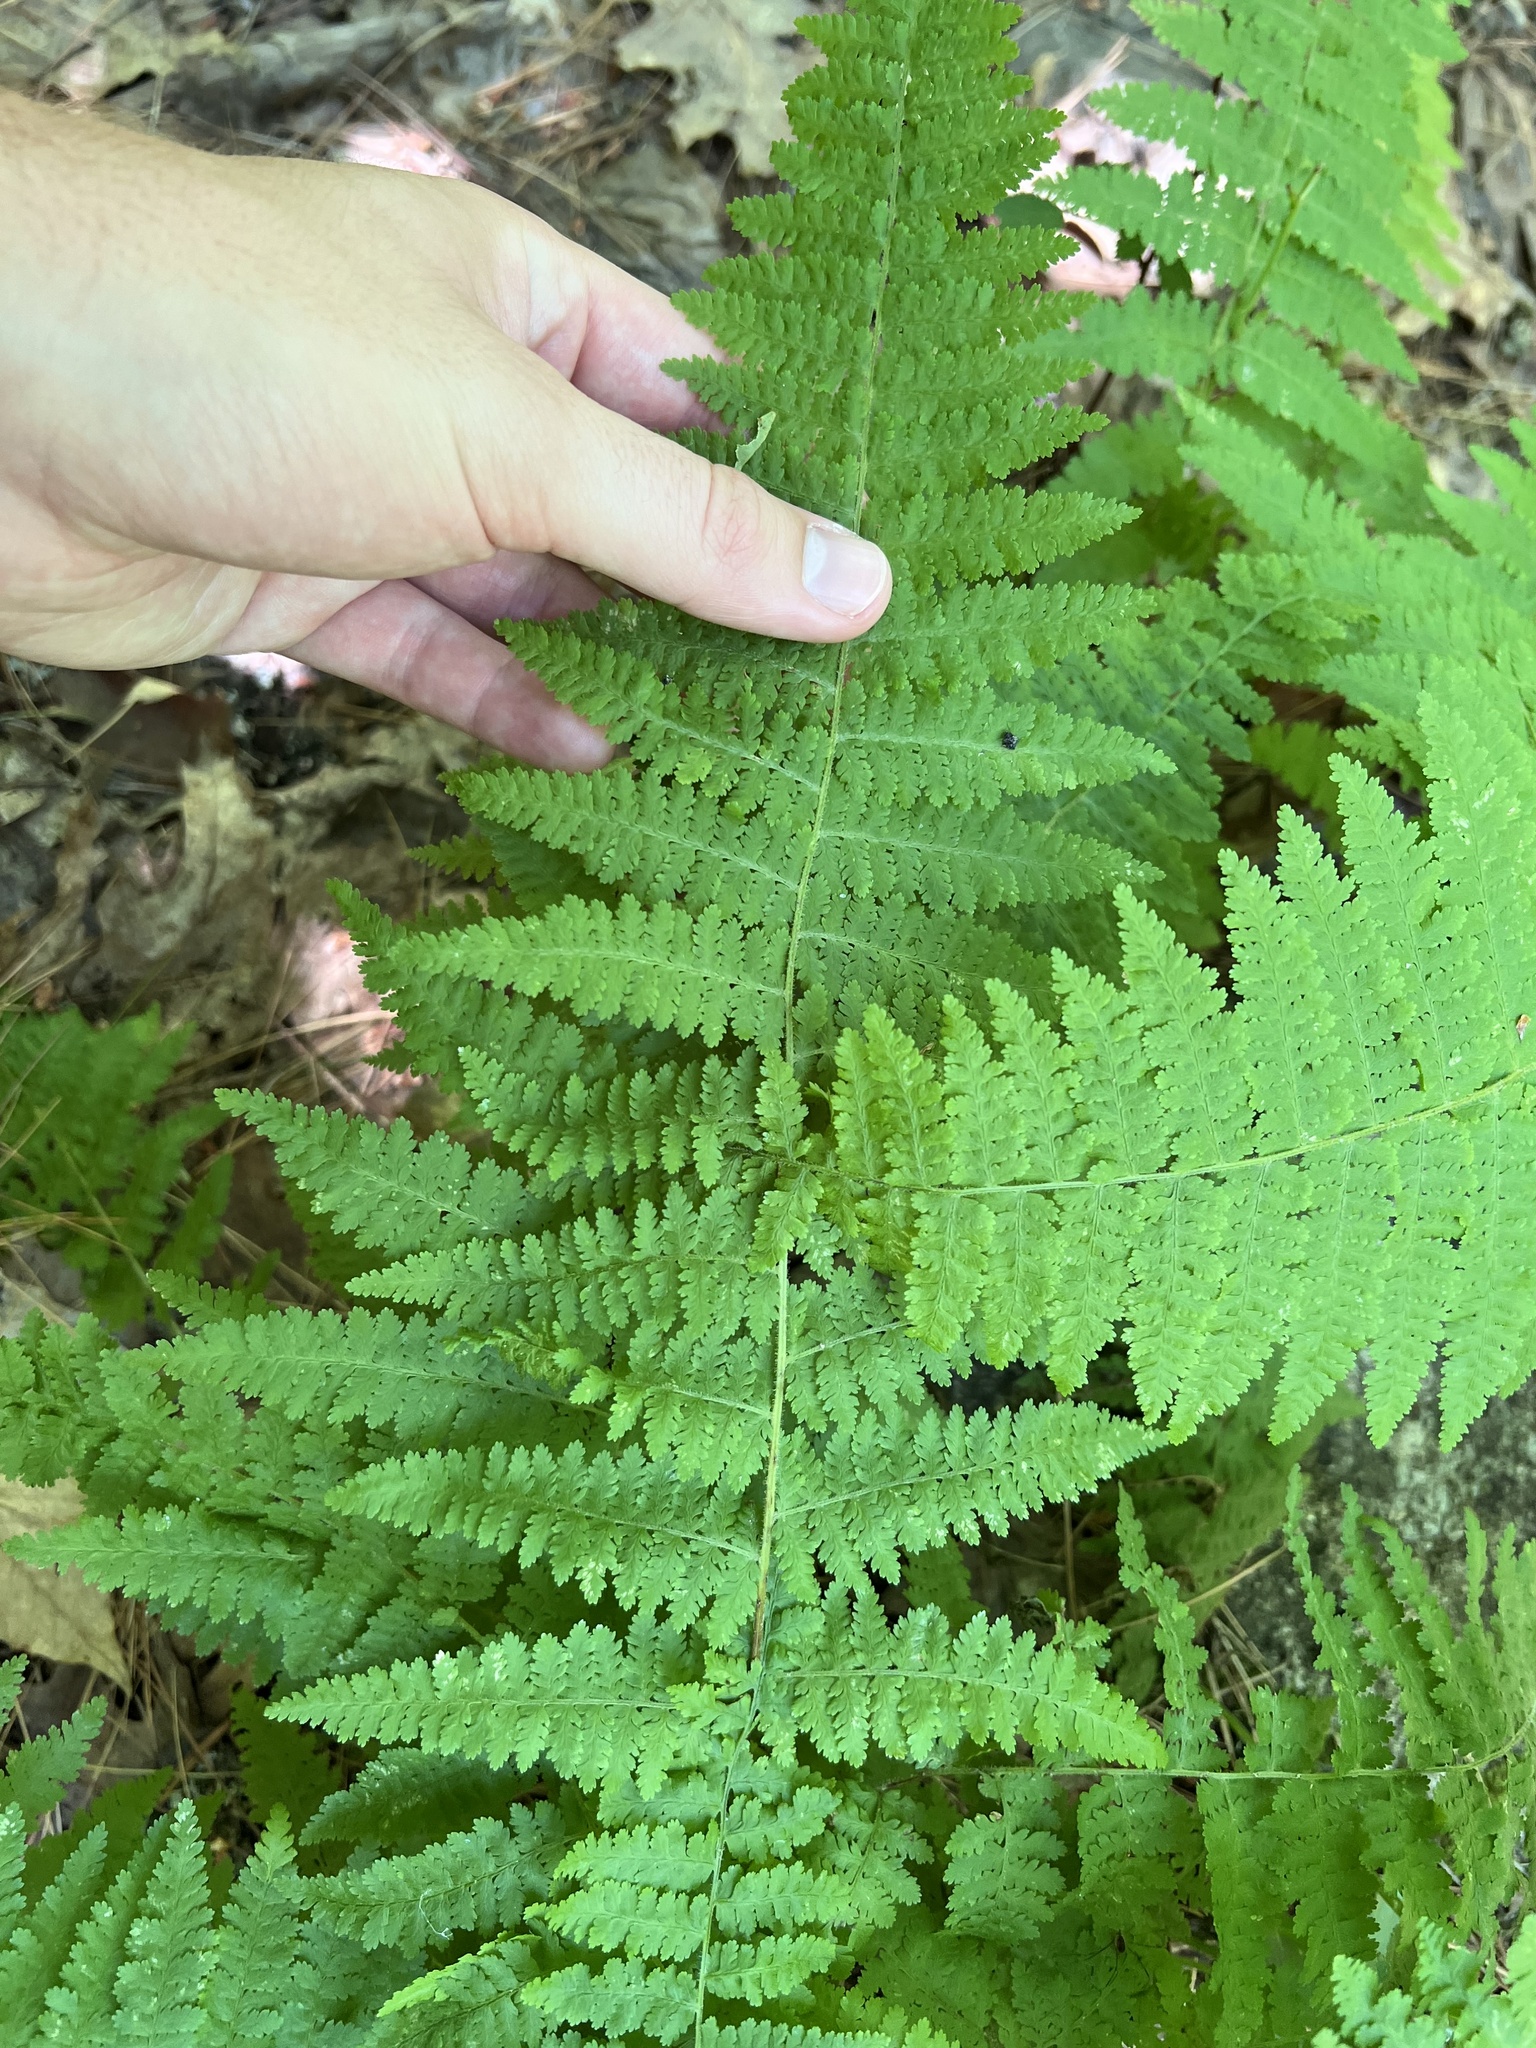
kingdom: Plantae
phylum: Tracheophyta
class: Polypodiopsida
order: Polypodiales
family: Dennstaedtiaceae
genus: Sitobolium
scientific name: Sitobolium punctilobum
